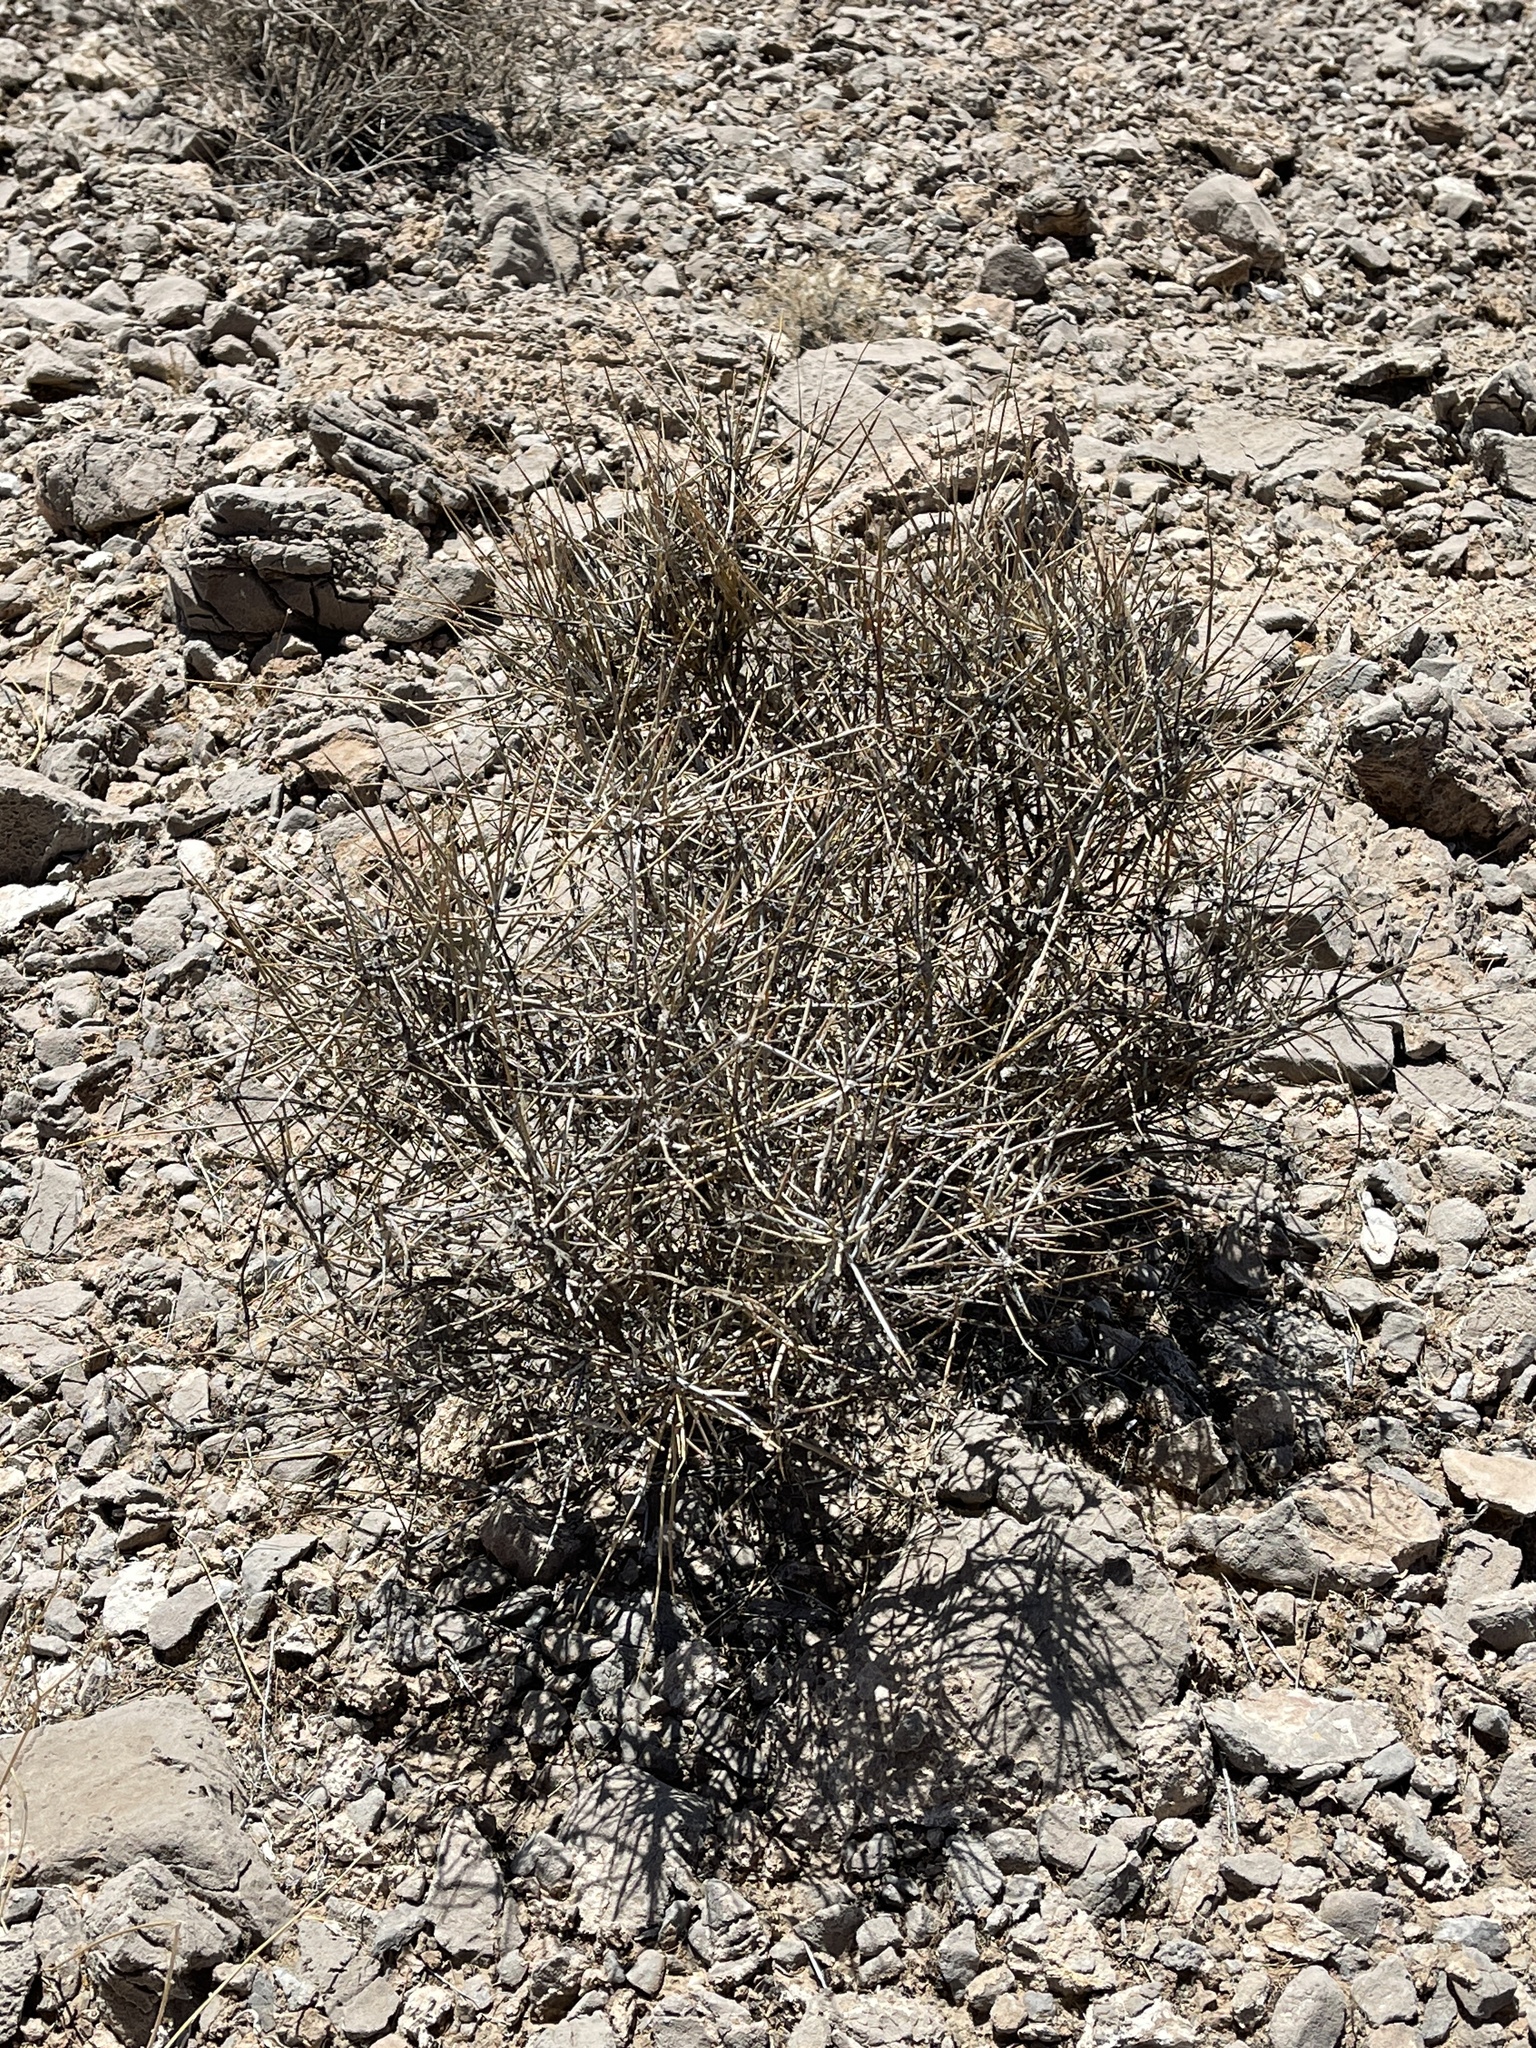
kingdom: Plantae
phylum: Tracheophyta
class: Gnetopsida
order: Ephedrales
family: Ephedraceae
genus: Ephedra
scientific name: Ephedra nevadensis
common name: Gray ephedra
